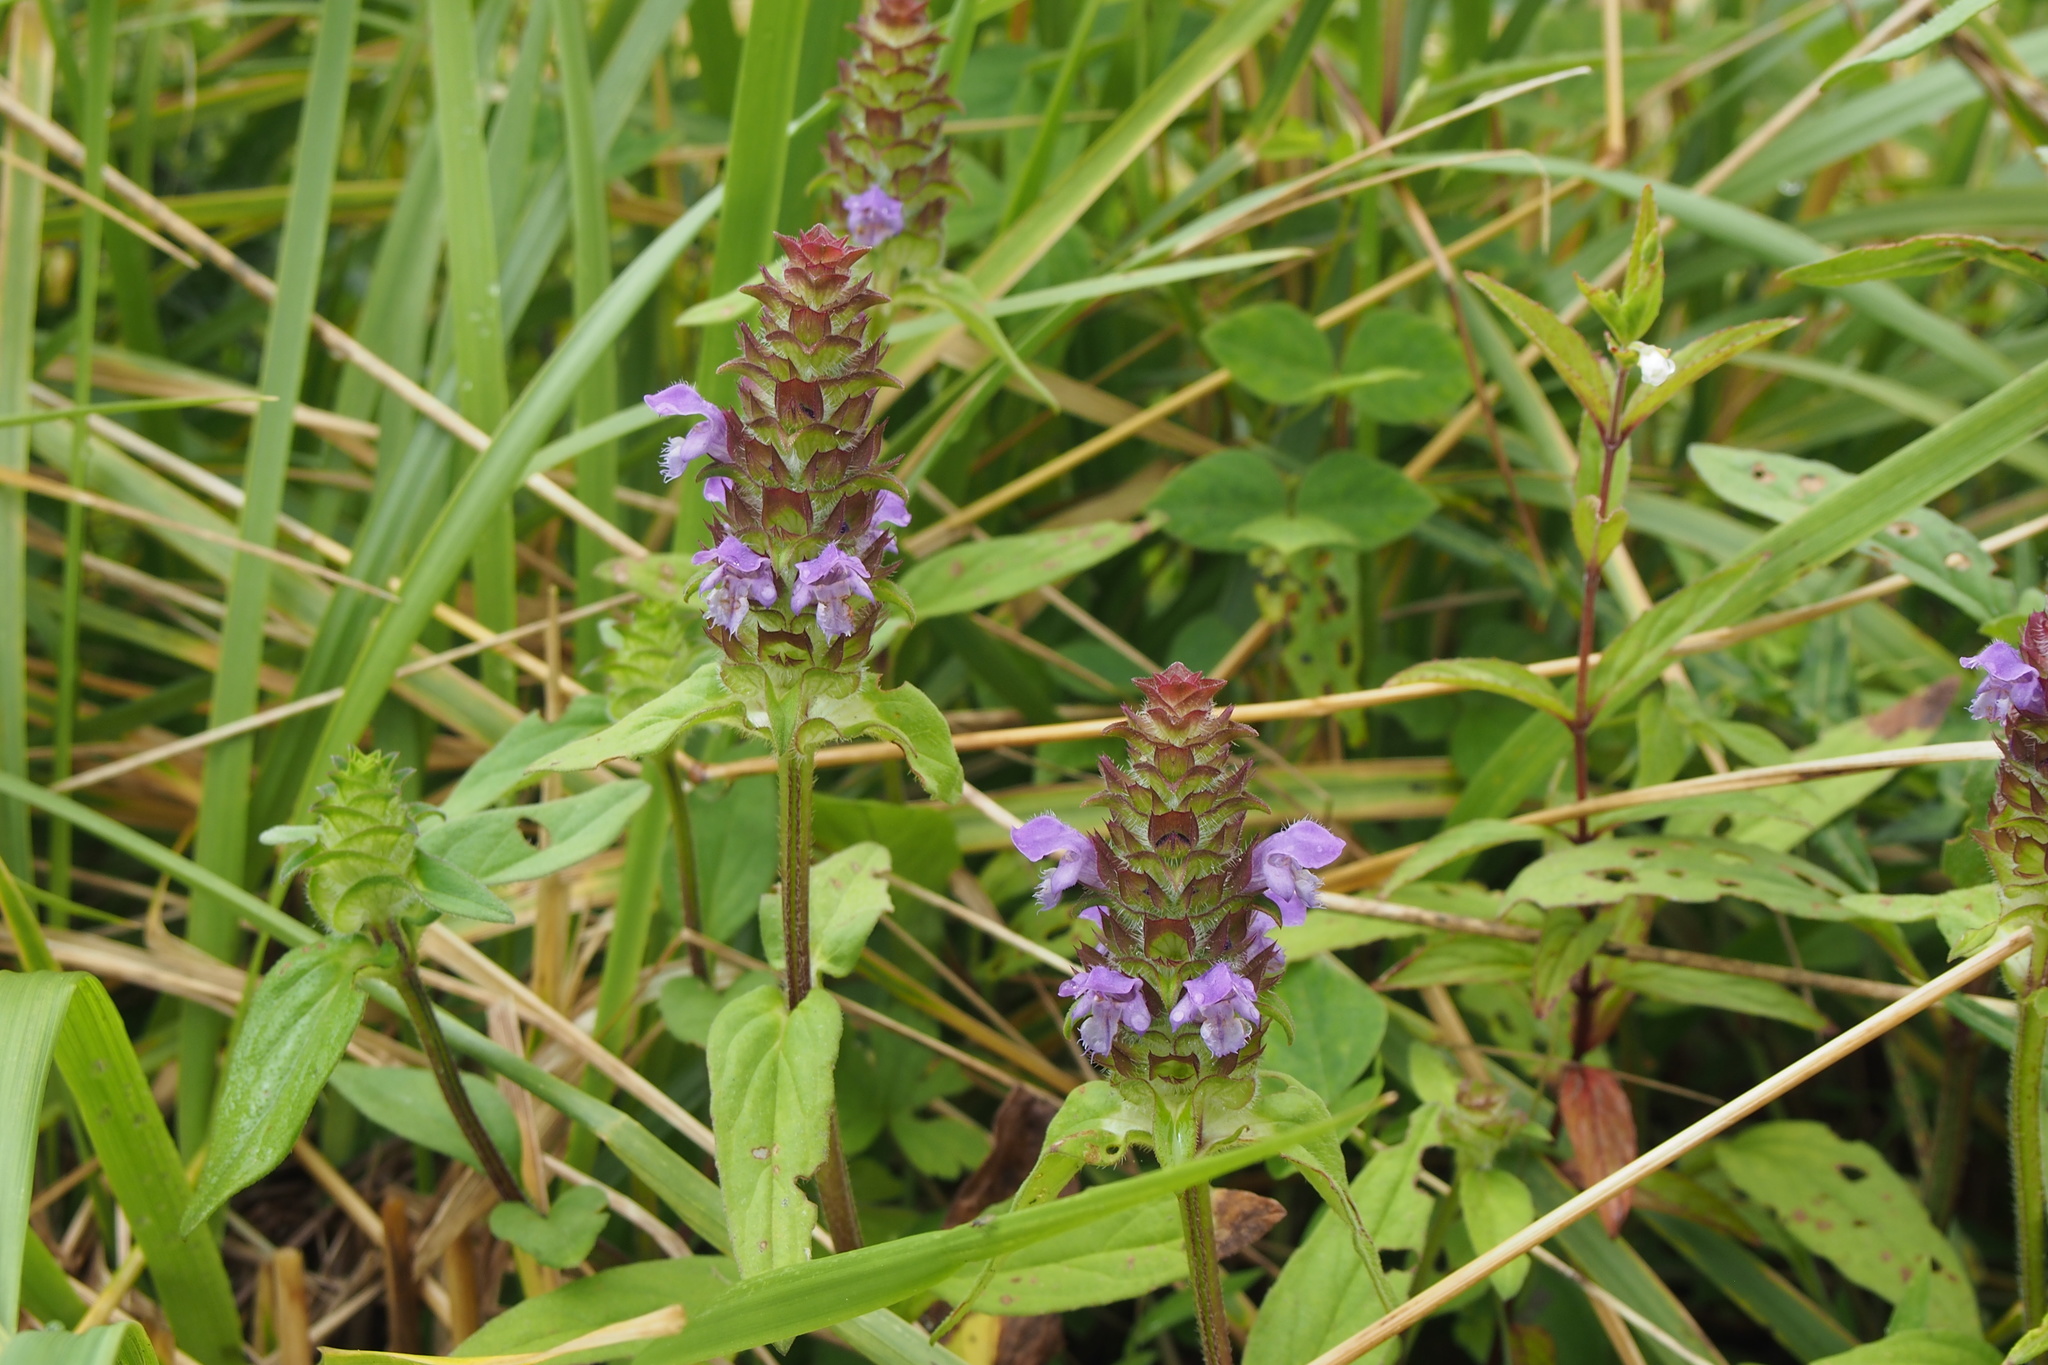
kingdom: Plantae
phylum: Tracheophyta
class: Magnoliopsida
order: Lamiales
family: Lamiaceae
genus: Prunella
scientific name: Prunella vulgaris
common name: Heal-all
